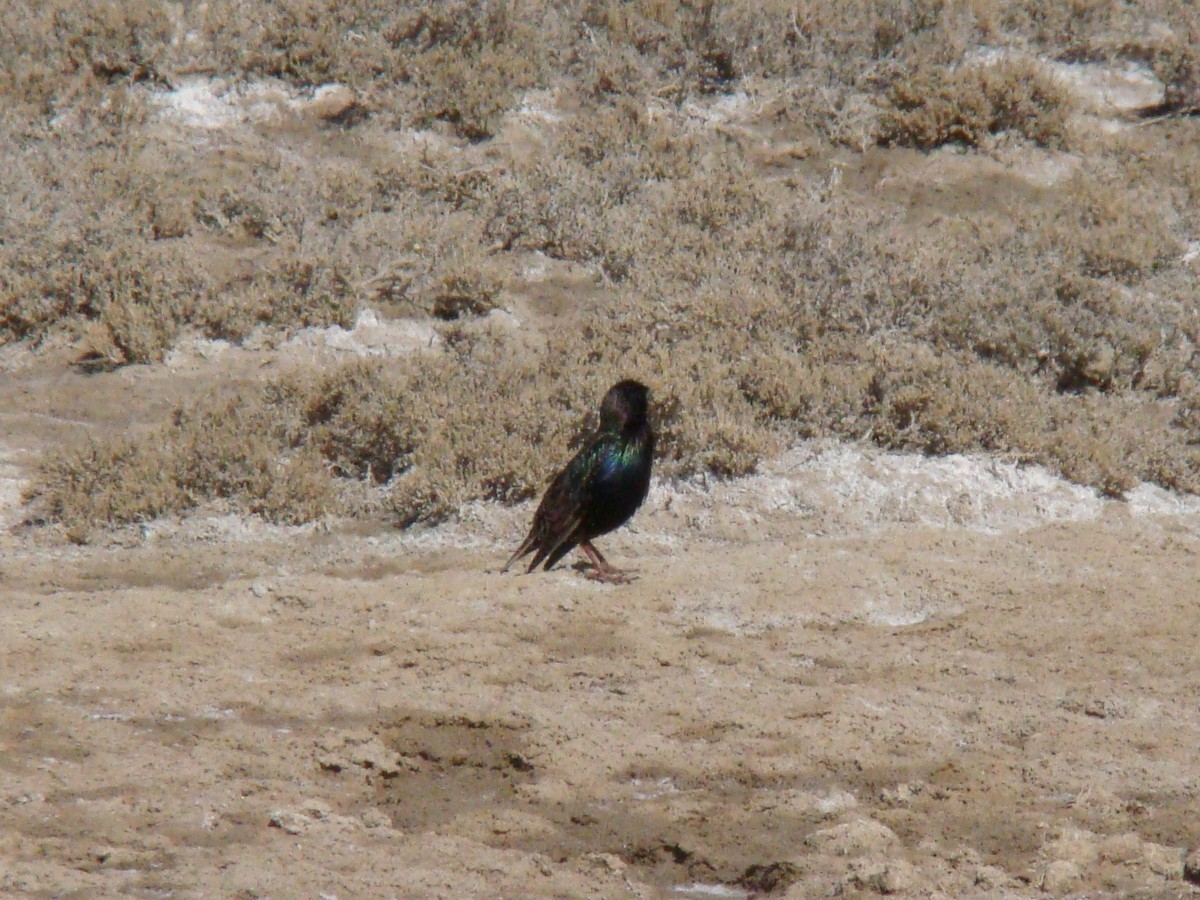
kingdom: Animalia
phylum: Chordata
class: Aves
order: Passeriformes
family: Sturnidae
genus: Sturnus
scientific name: Sturnus vulgaris
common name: Common starling
